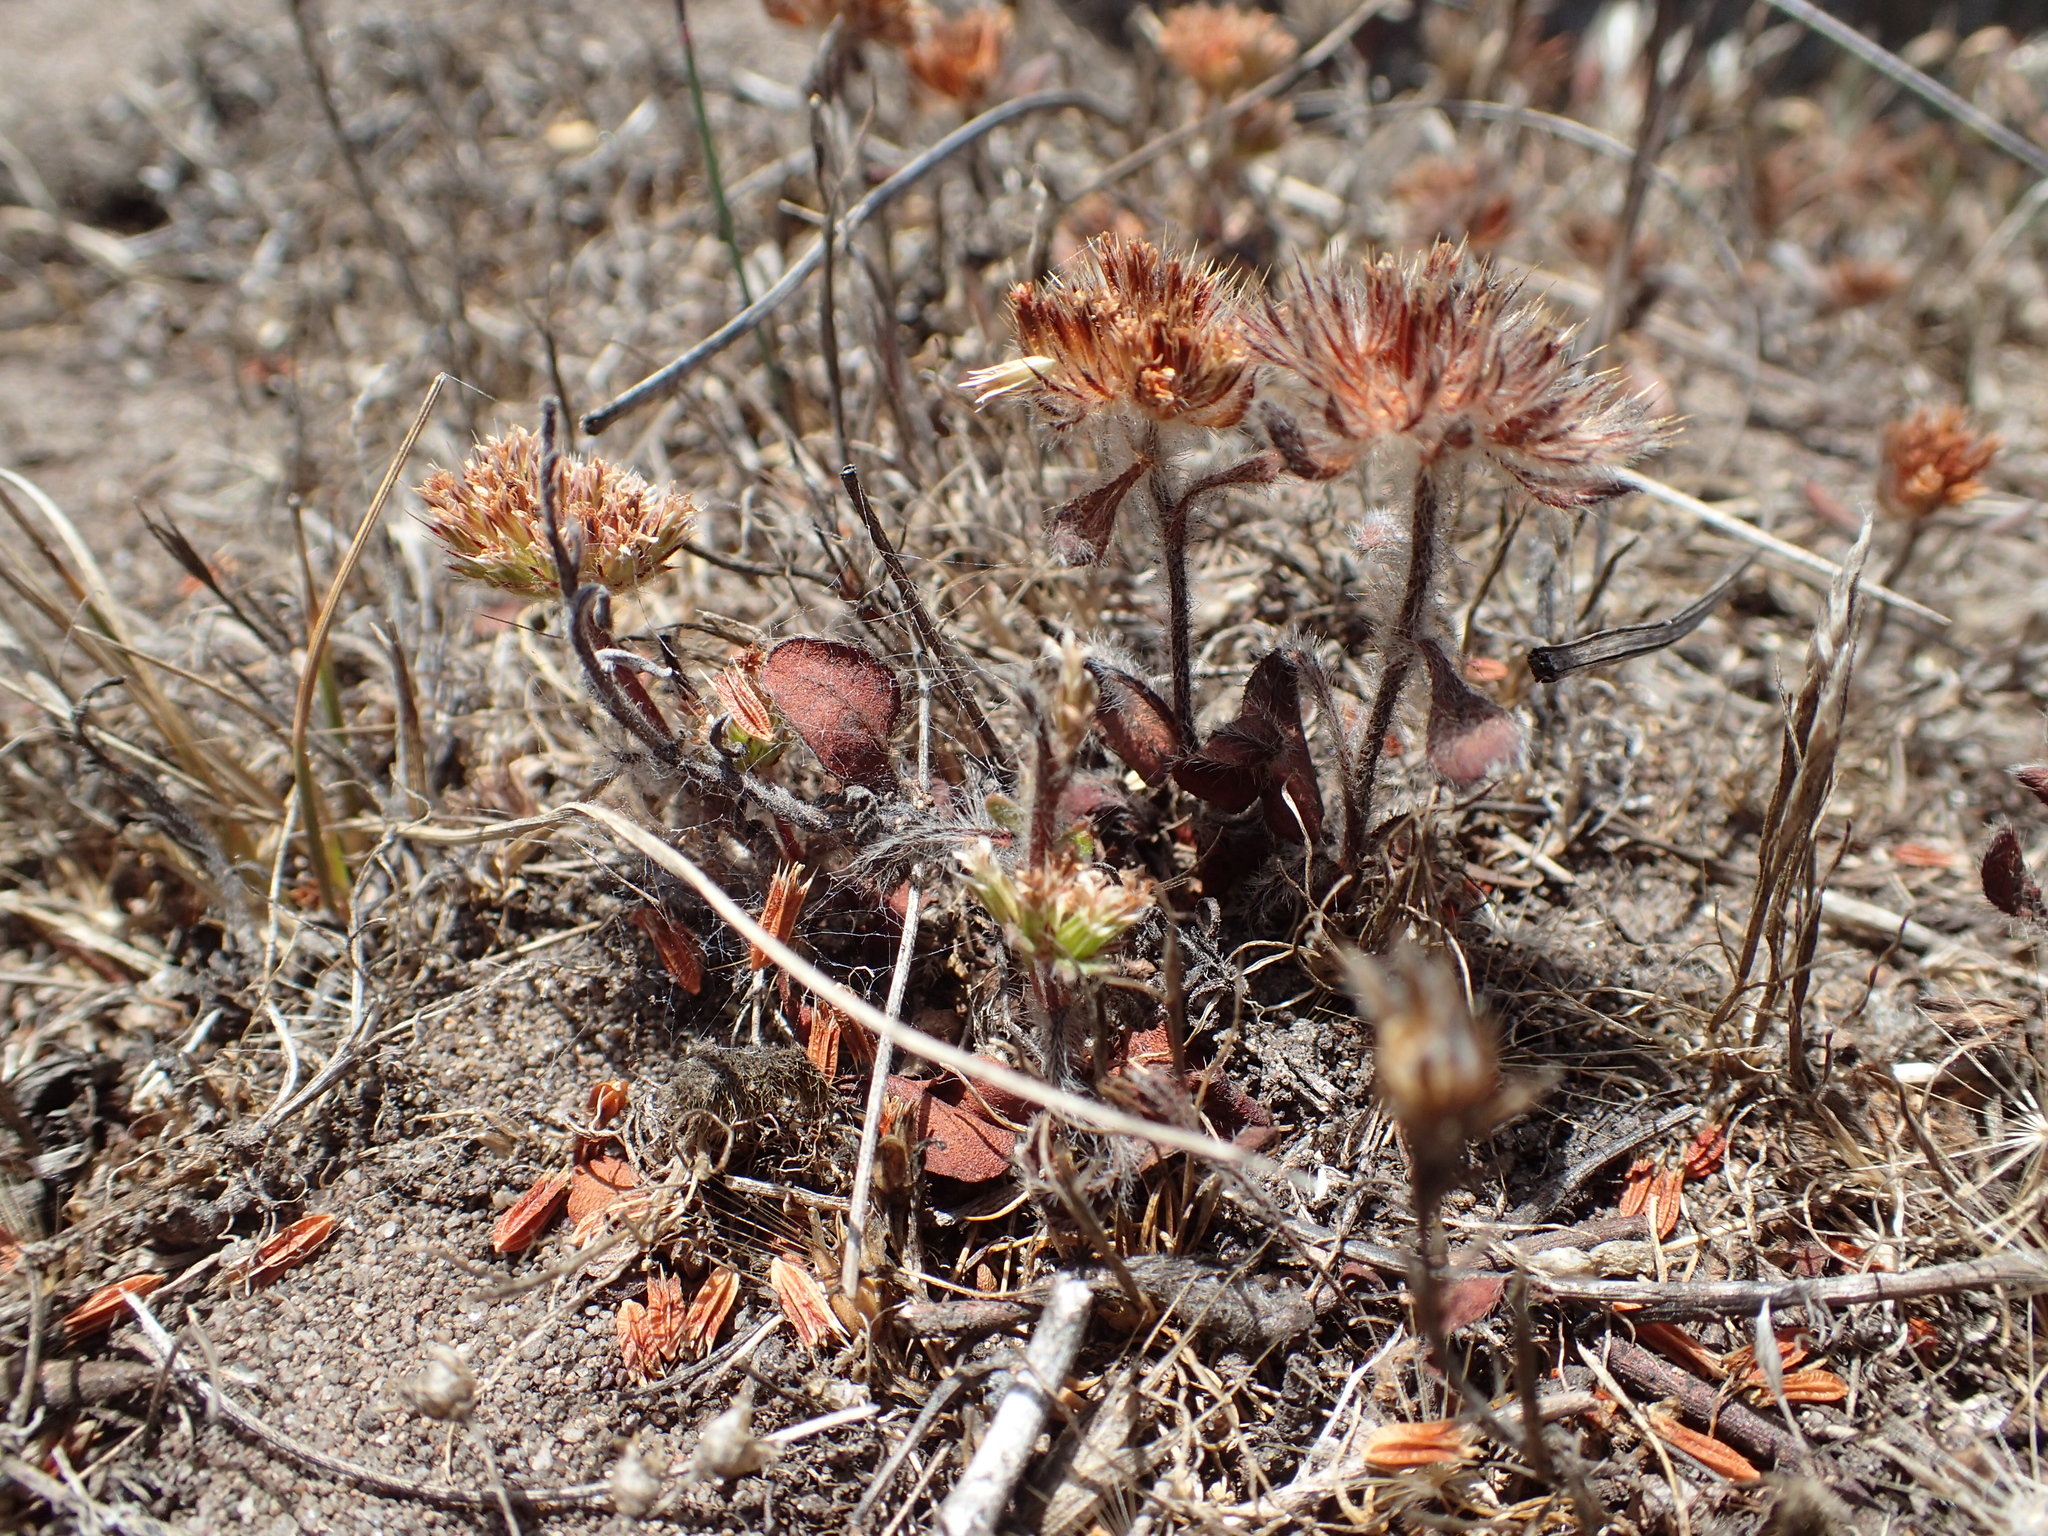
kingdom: Plantae
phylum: Tracheophyta
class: Magnoliopsida
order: Caryophyllales
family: Polygonaceae
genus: Chorizanthe
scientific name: Chorizanthe valida
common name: Sonoma spineflower
